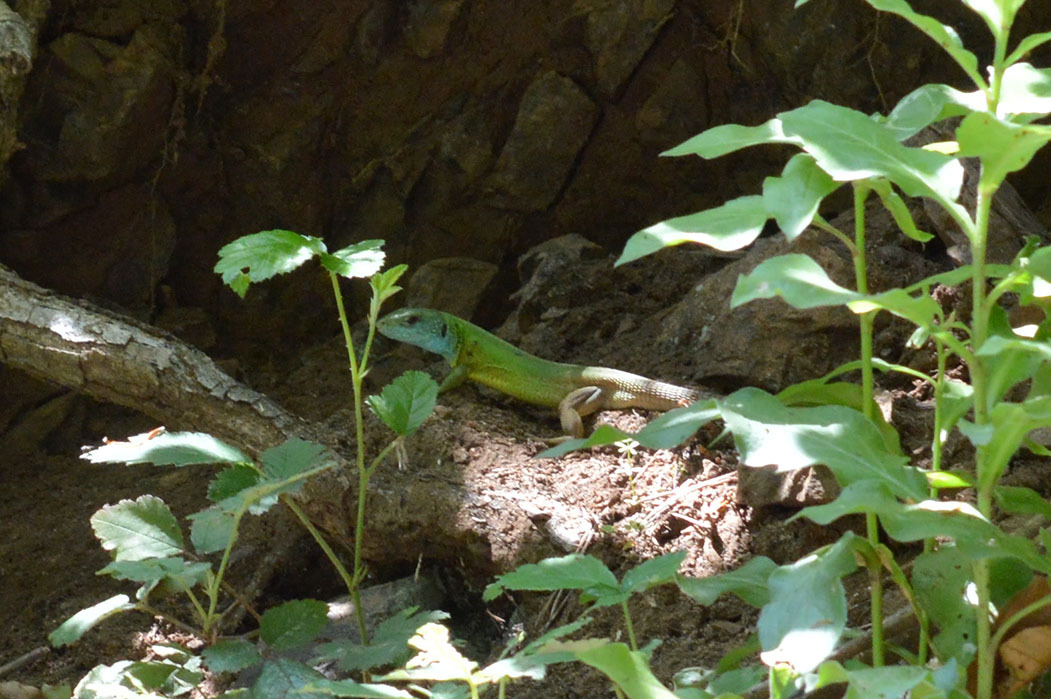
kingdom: Animalia
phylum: Chordata
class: Squamata
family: Lacertidae
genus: Lacerta
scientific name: Lacerta viridis
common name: European green lizard
